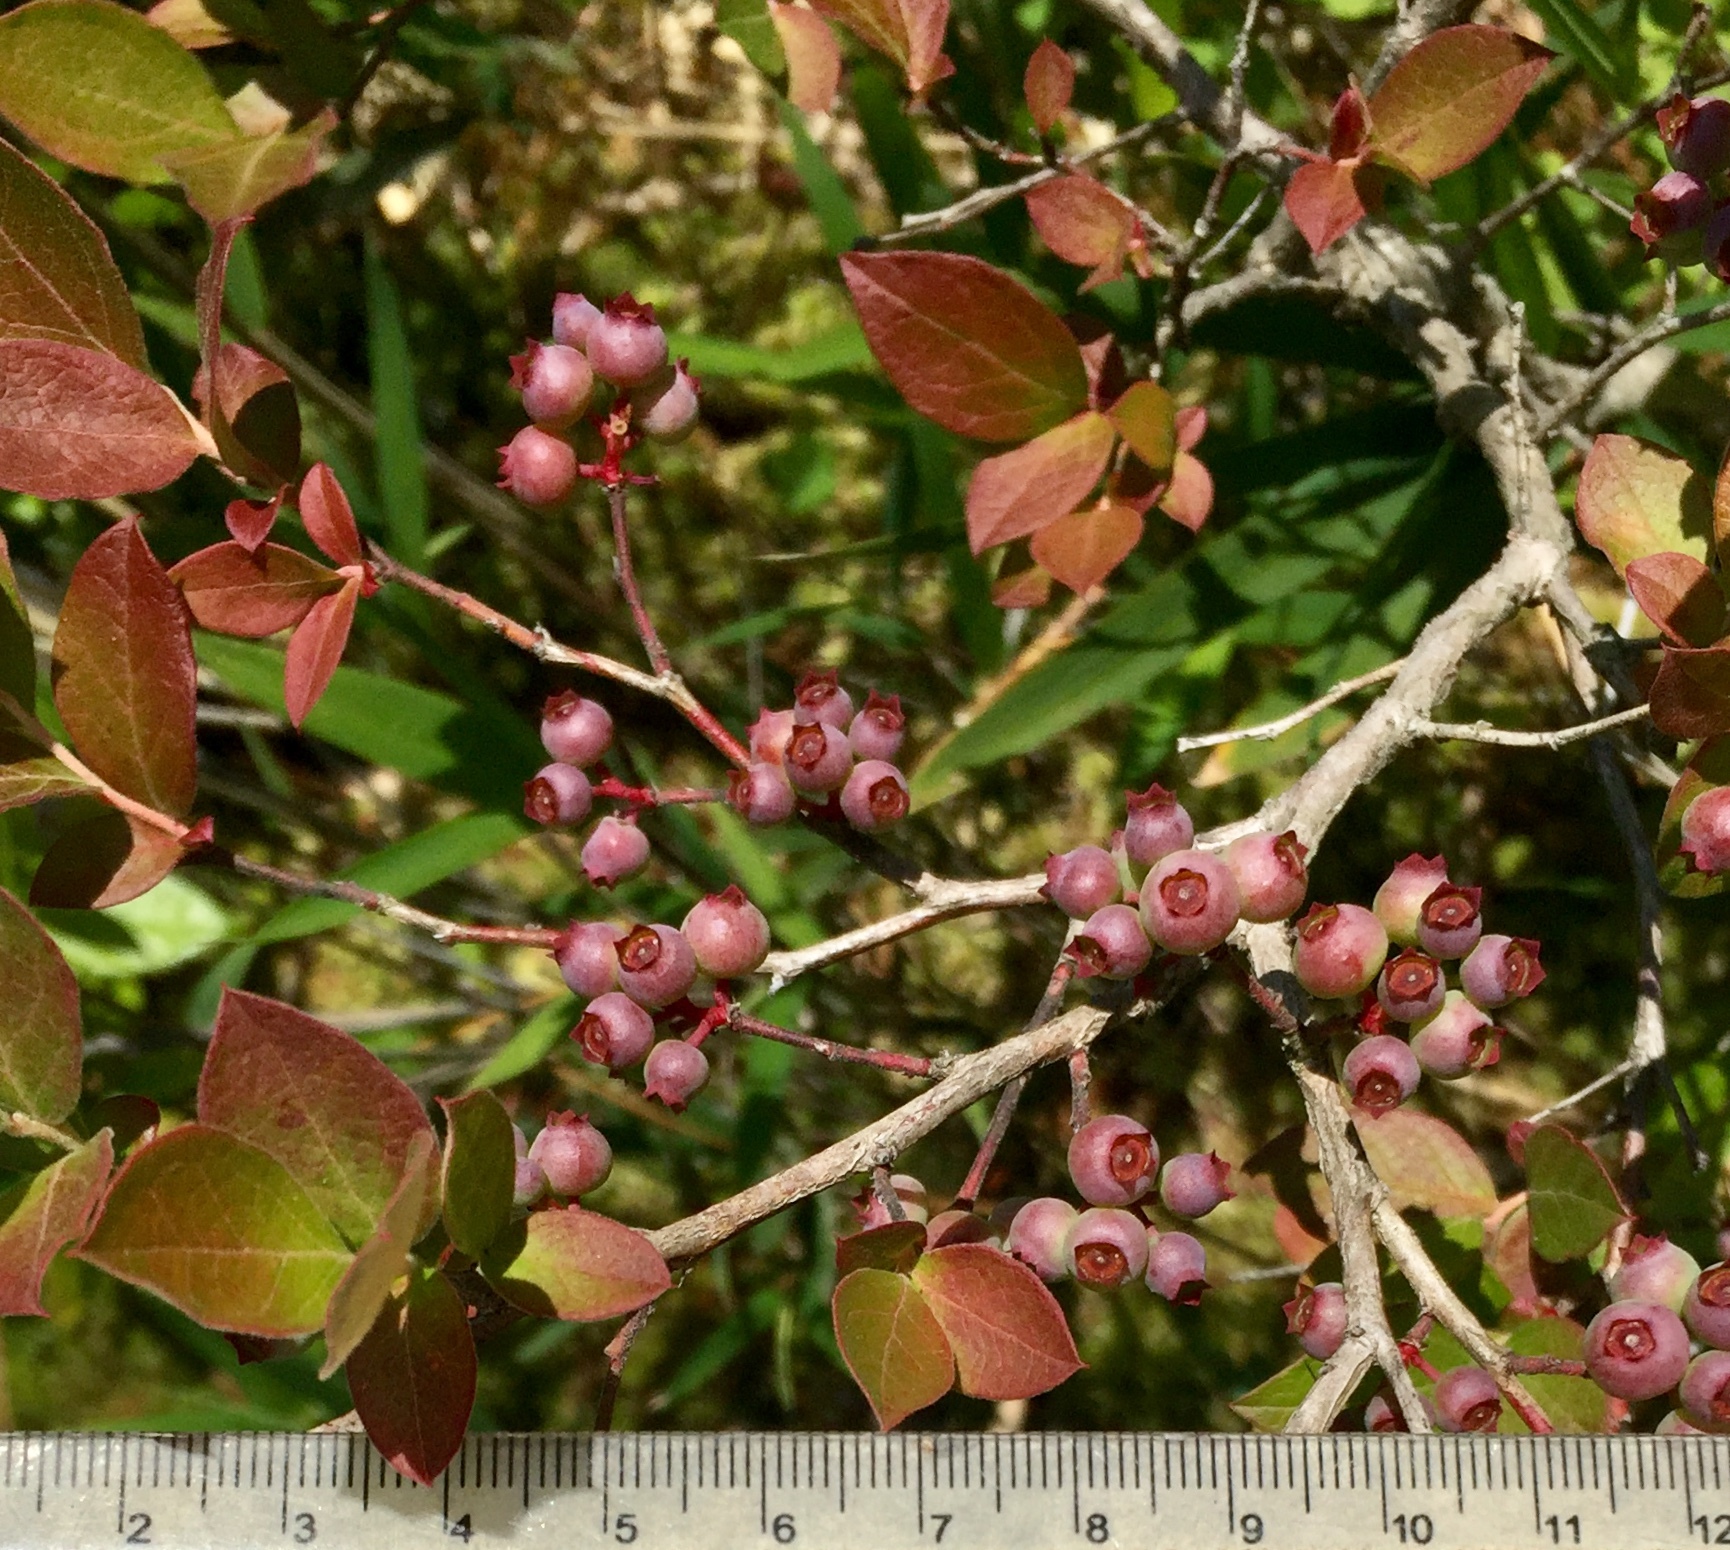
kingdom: Plantae
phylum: Tracheophyta
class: Magnoliopsida
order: Ericales
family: Ericaceae
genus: Vaccinium
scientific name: Vaccinium corymbosum
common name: Blueberry
